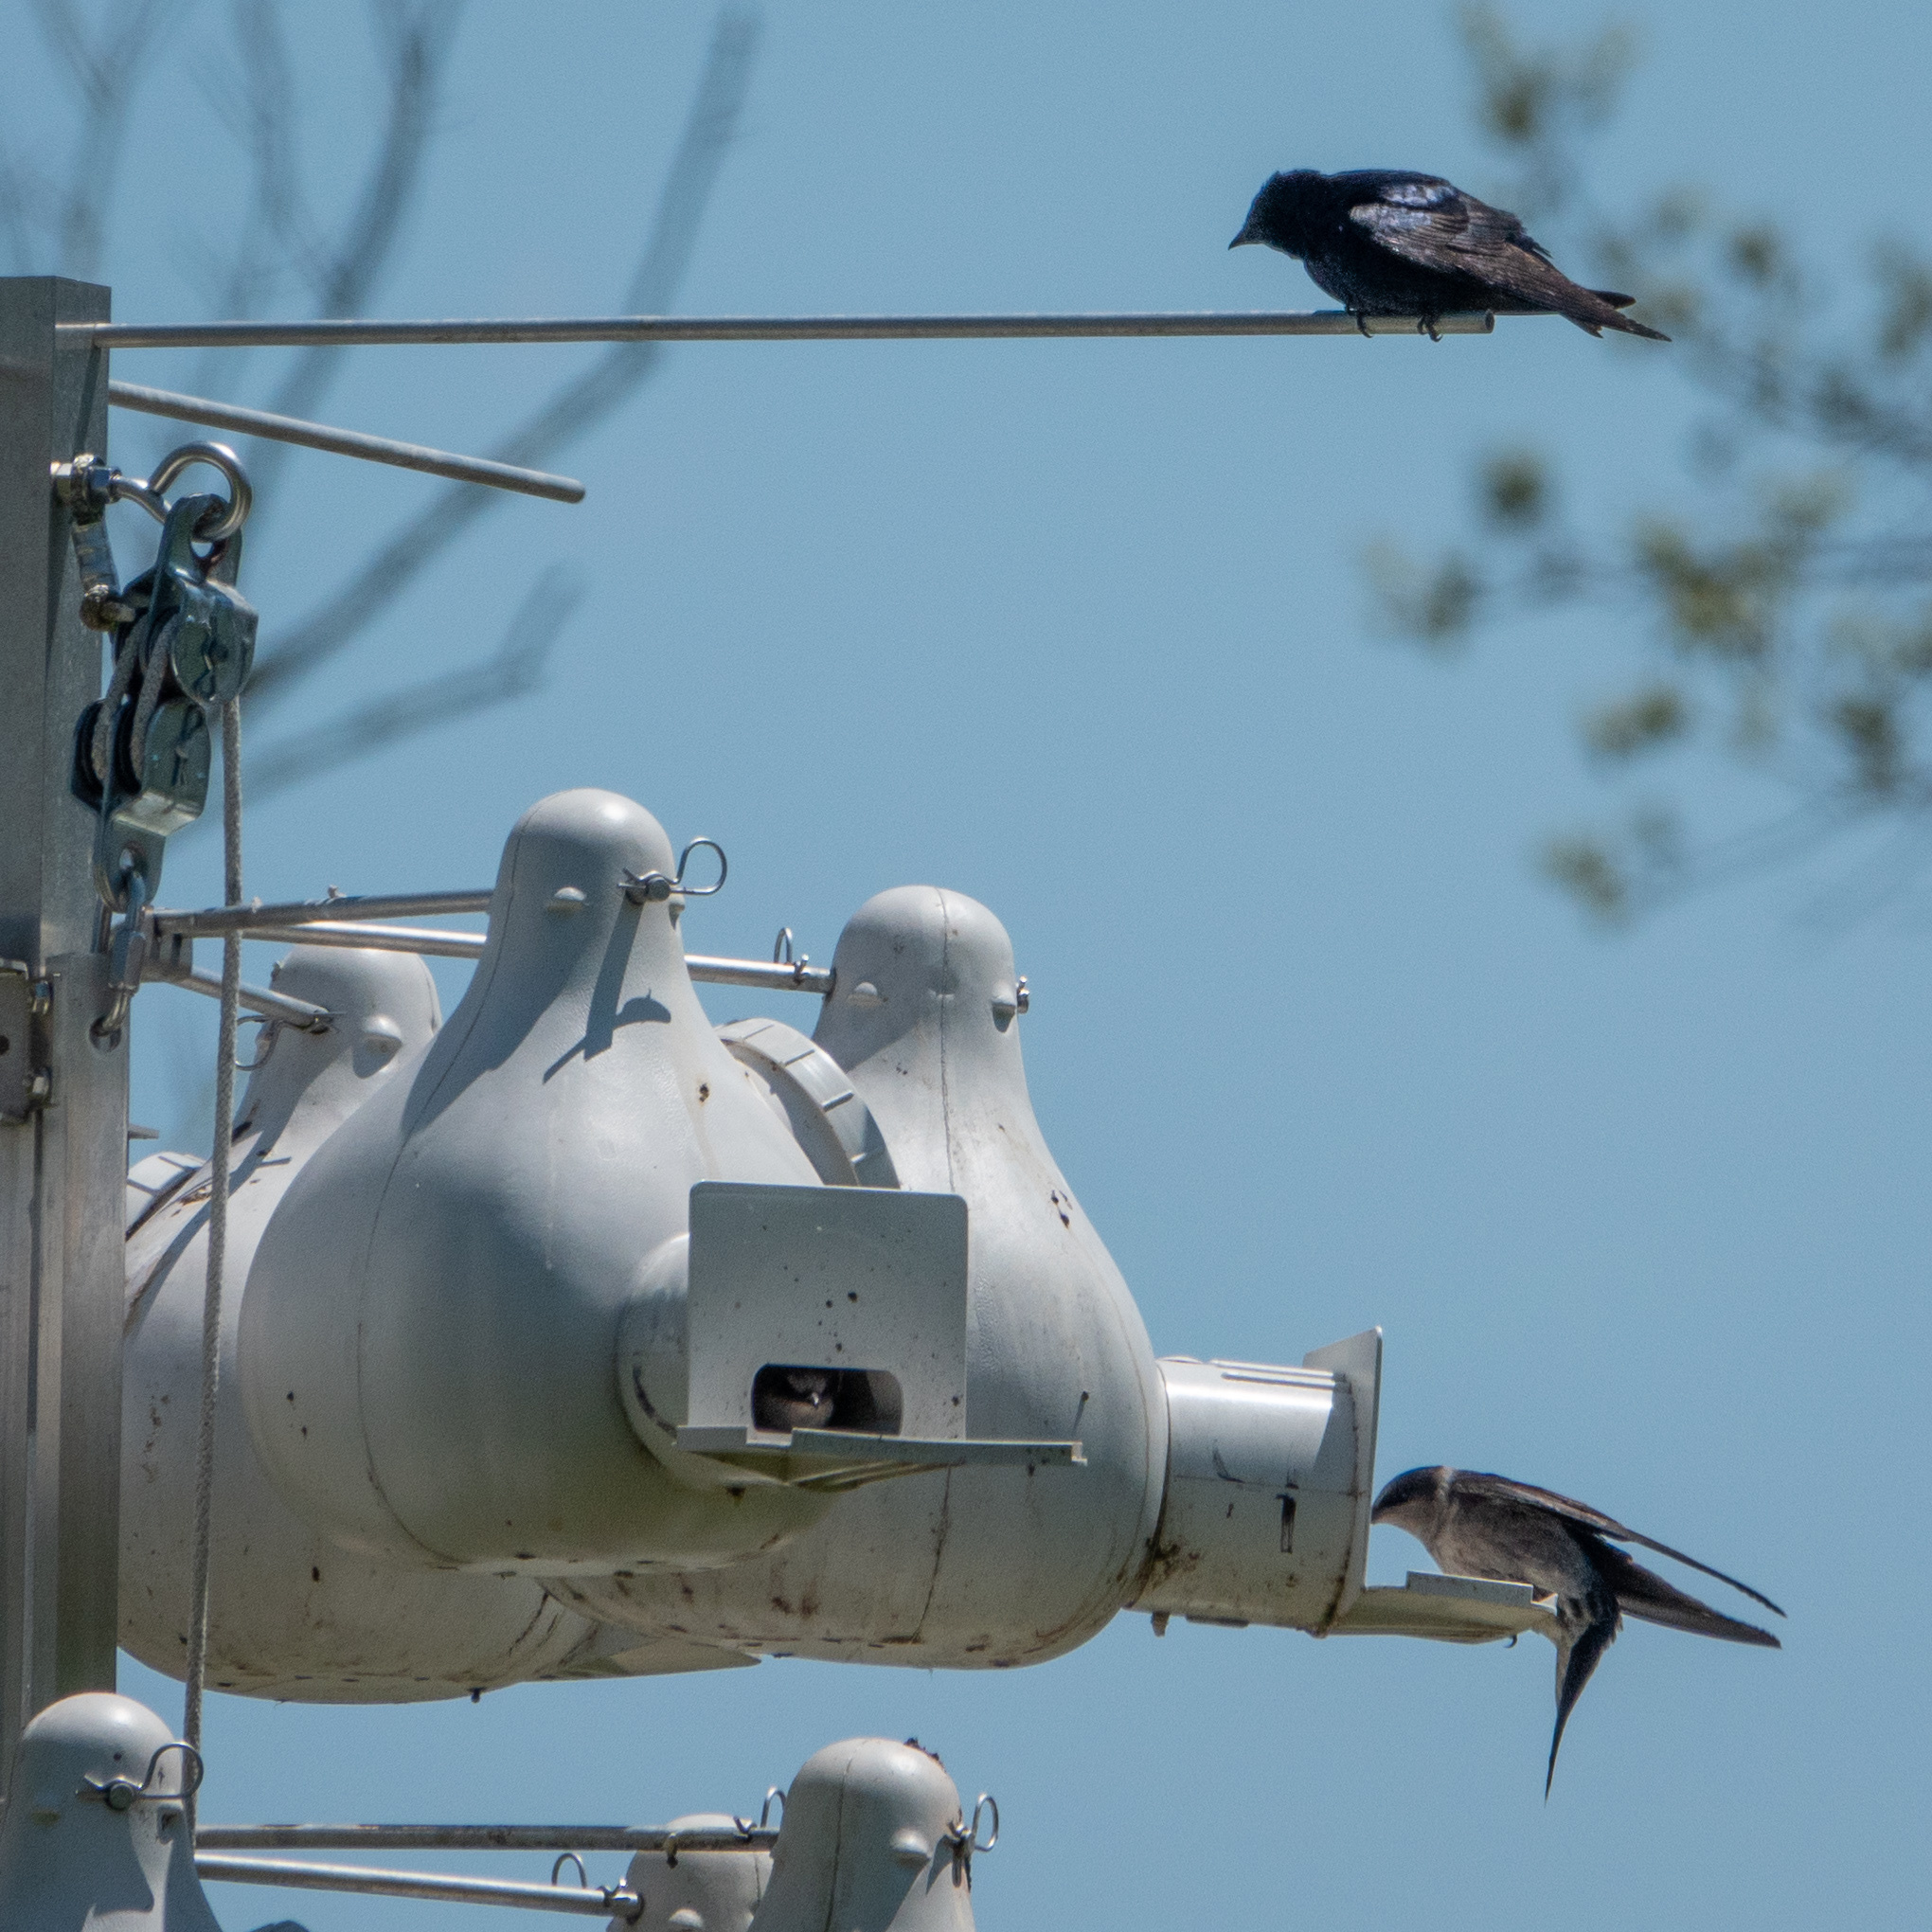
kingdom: Animalia
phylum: Chordata
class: Aves
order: Passeriformes
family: Hirundinidae
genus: Progne
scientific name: Progne subis
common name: Purple martin
